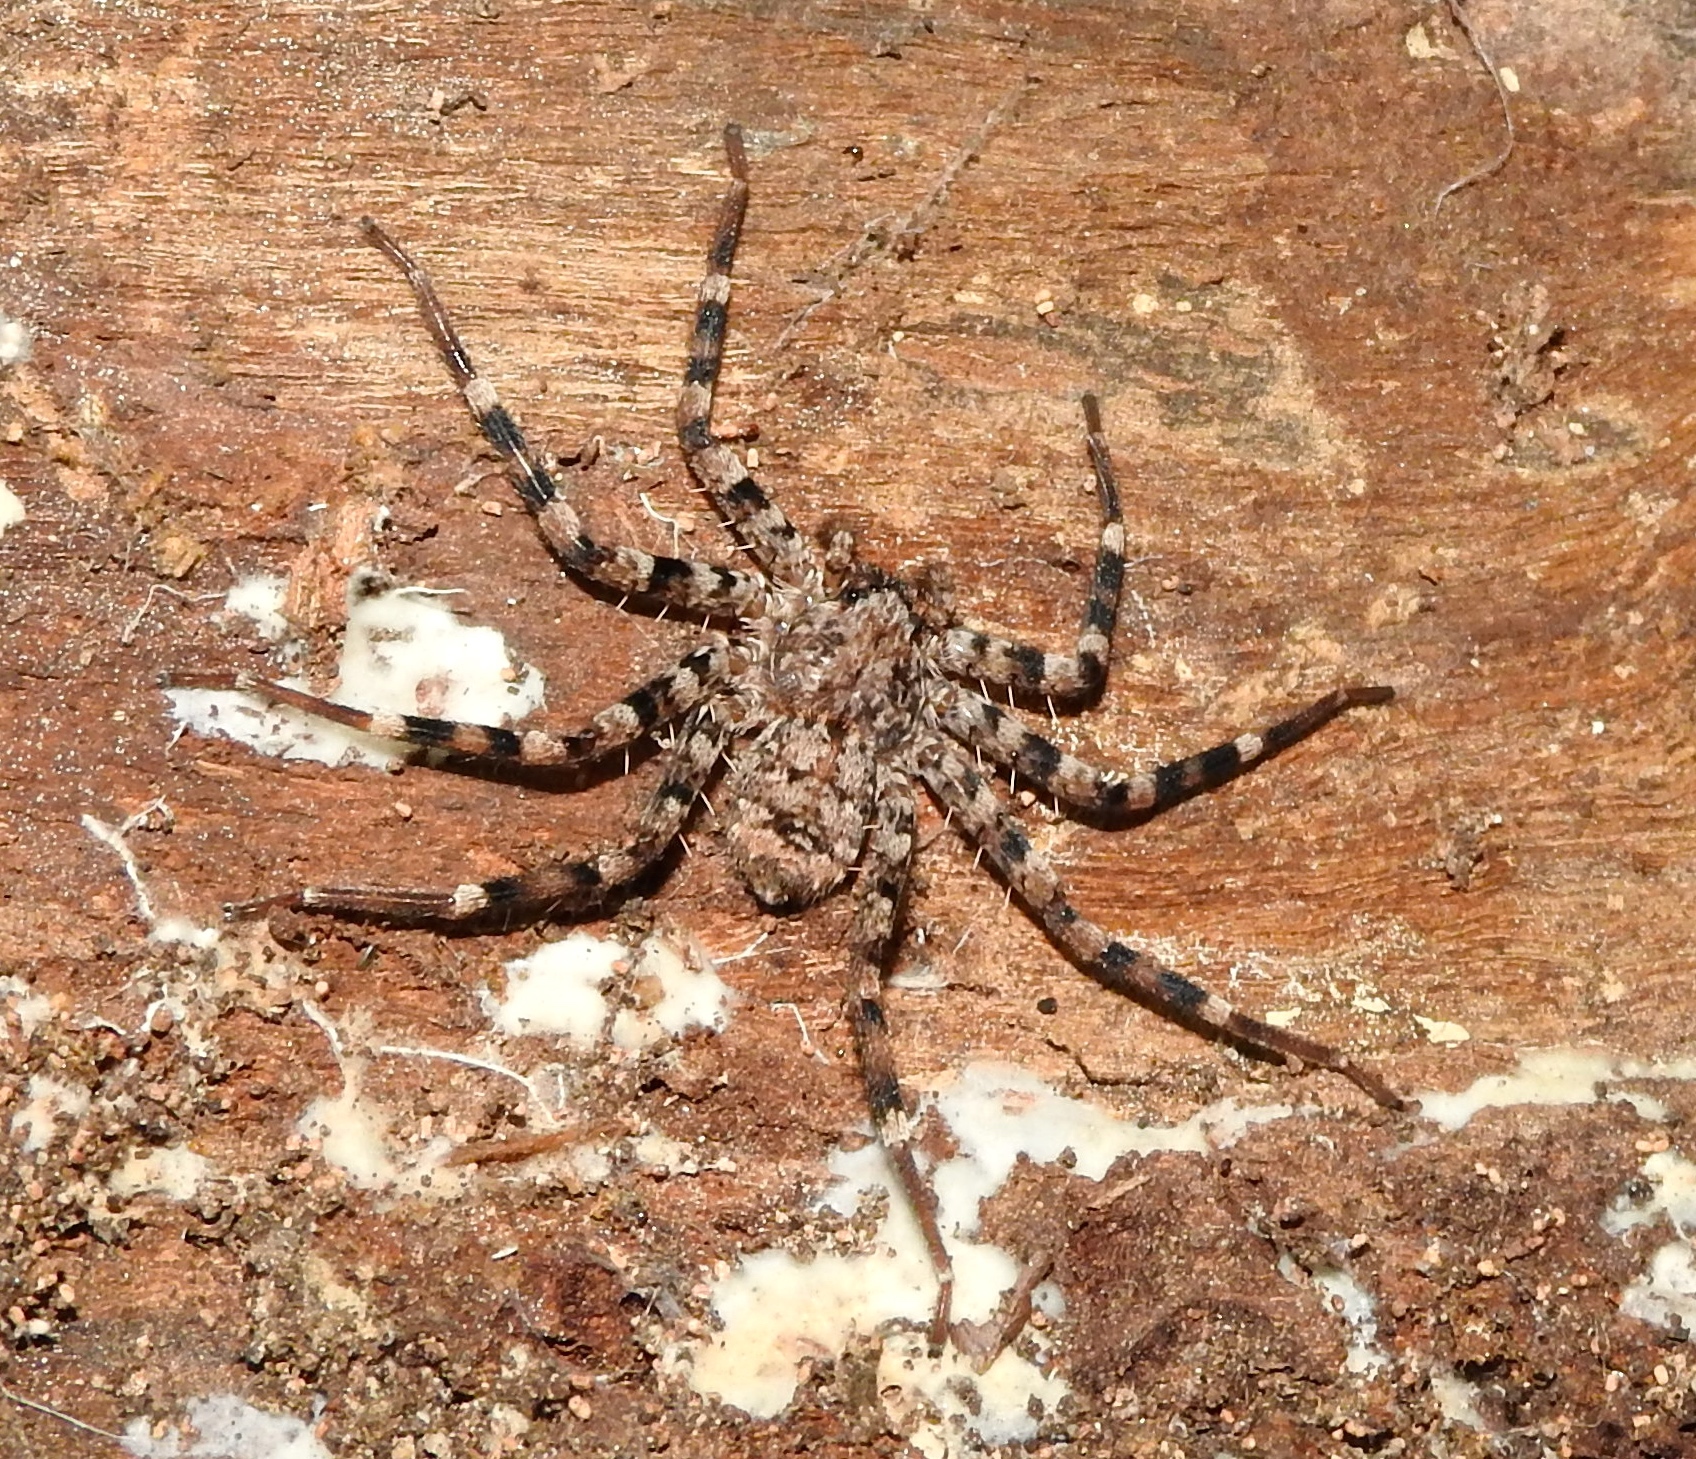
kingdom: Animalia
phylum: Arthropoda
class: Arachnida
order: Araneae
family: Selenopidae
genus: Selenops
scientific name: Selenops
